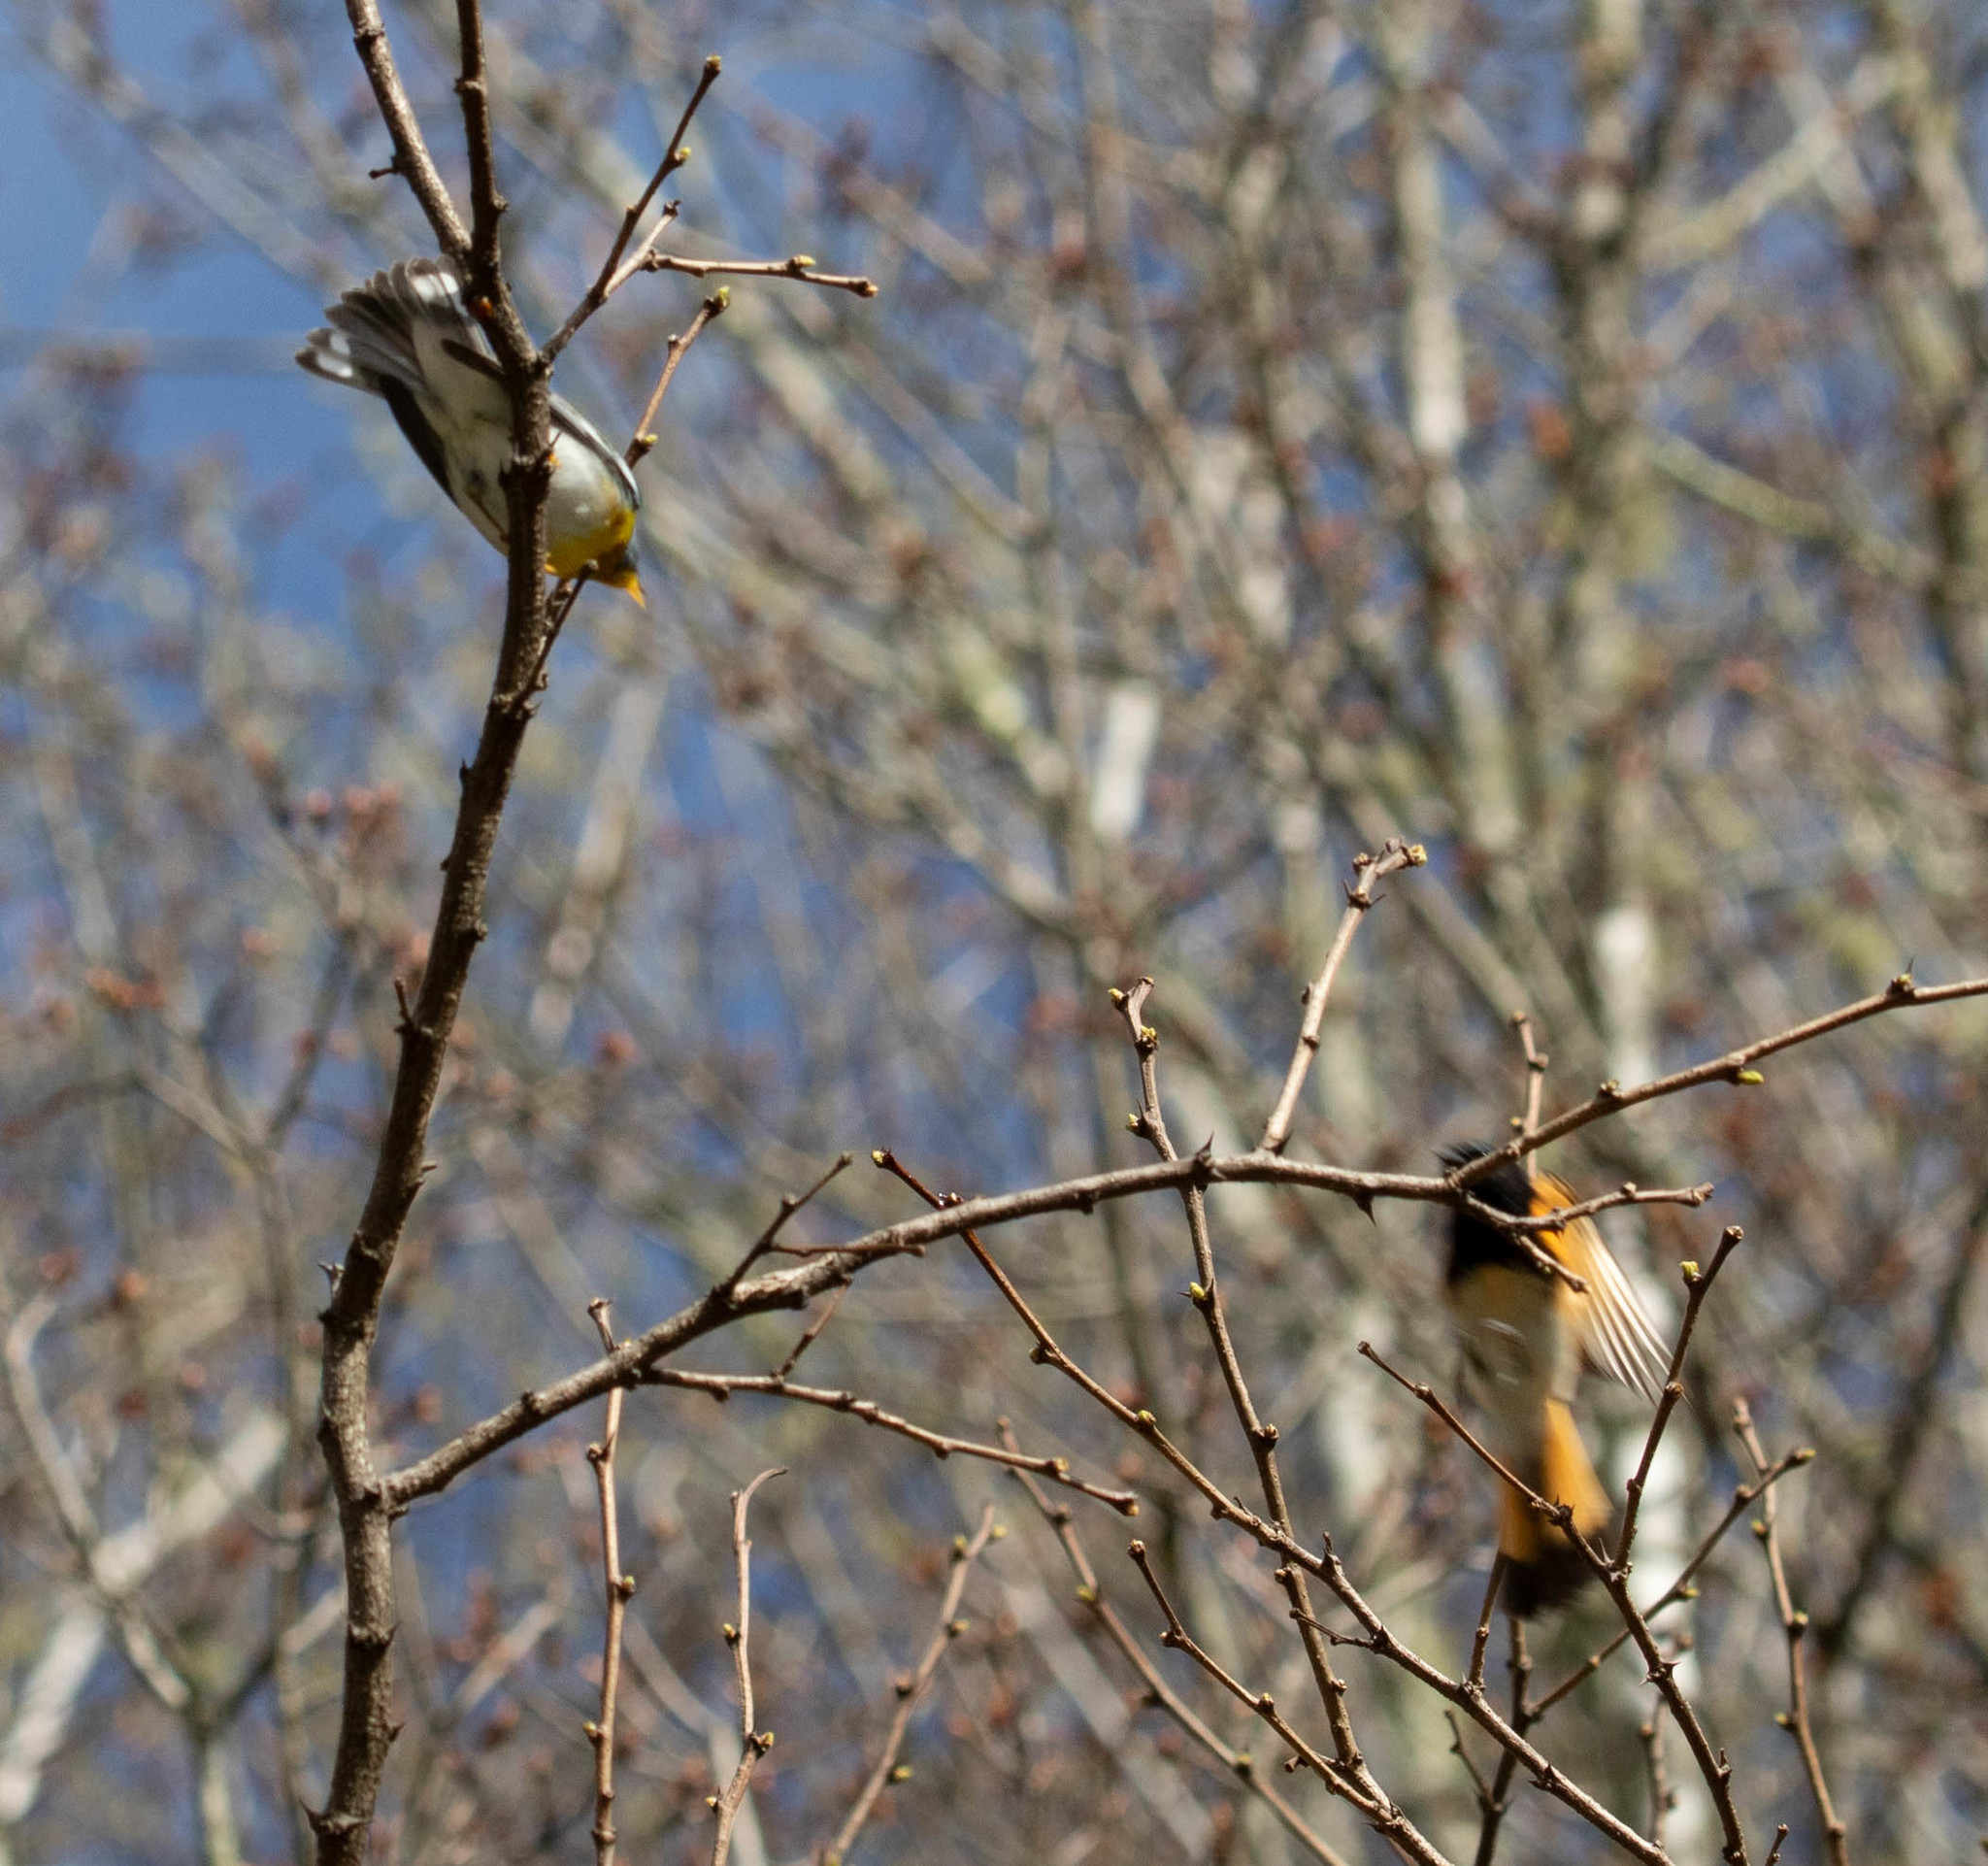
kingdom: Animalia
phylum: Chordata
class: Aves
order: Passeriformes
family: Parulidae
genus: Setophaga
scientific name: Setophaga ruticilla
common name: American redstart
